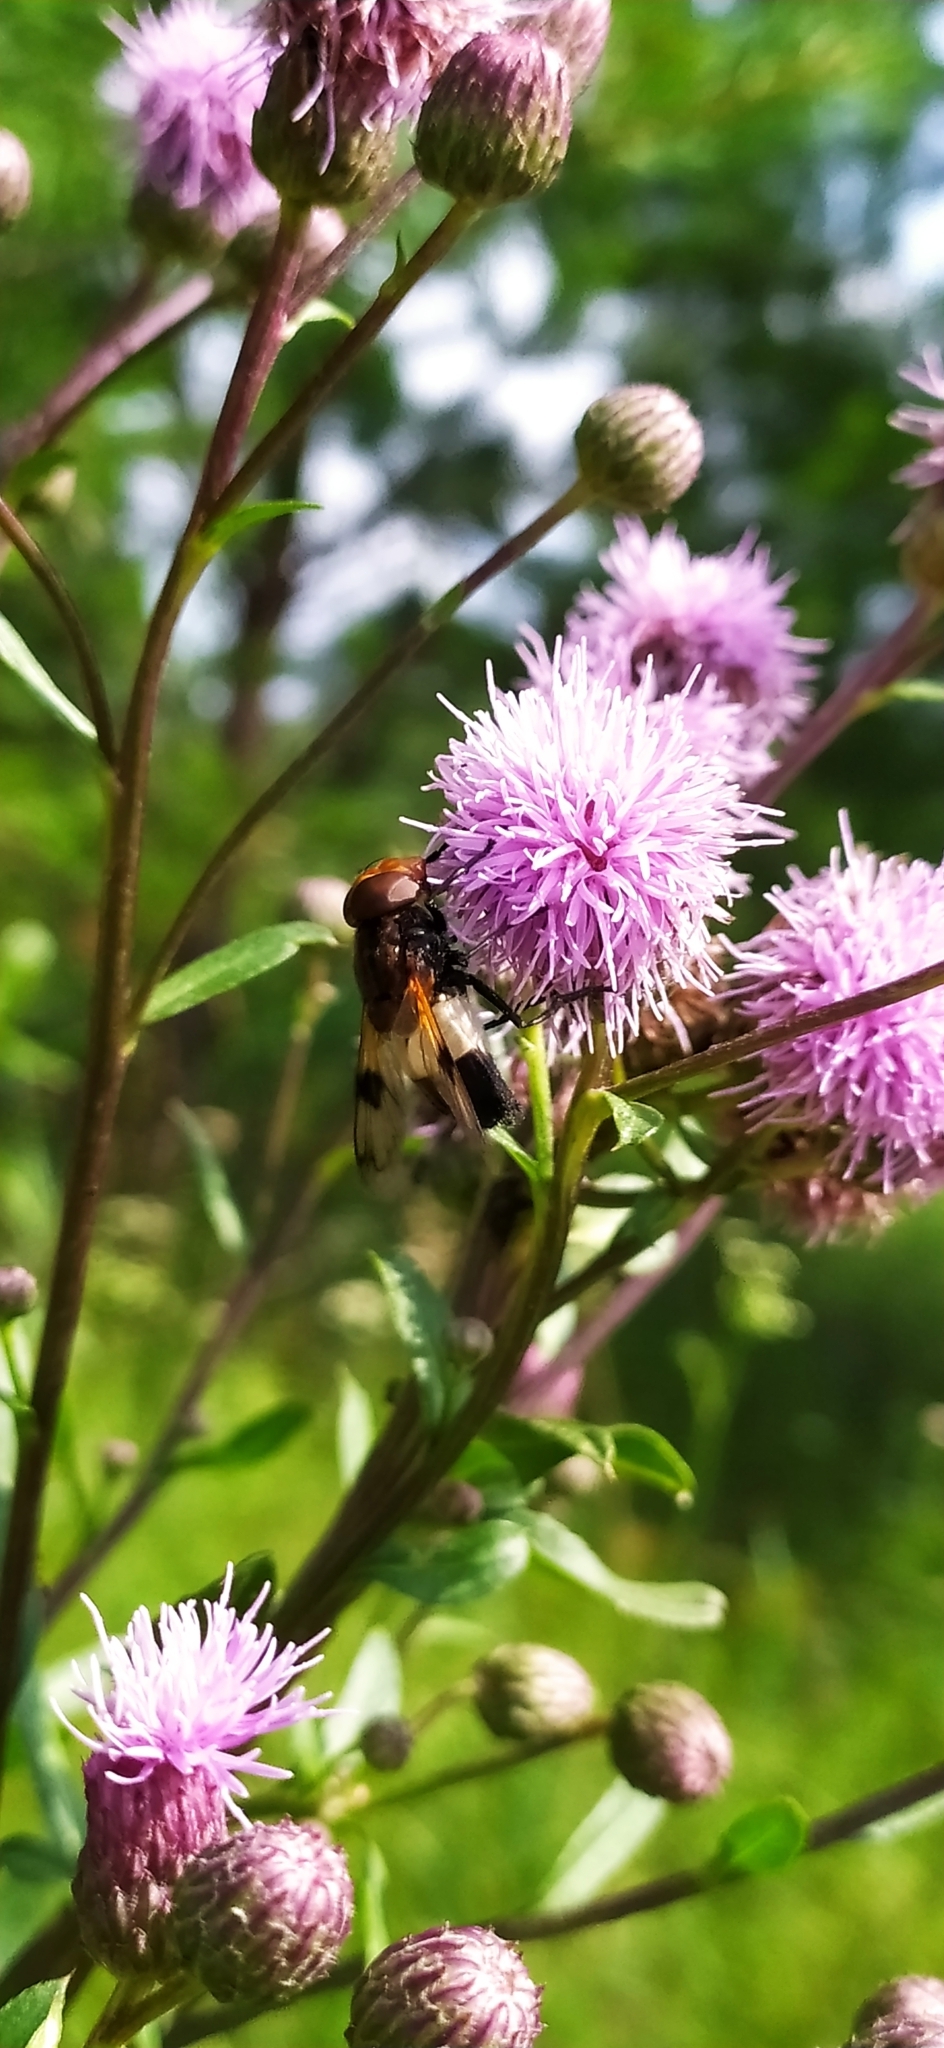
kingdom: Animalia
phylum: Arthropoda
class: Insecta
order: Diptera
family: Syrphidae
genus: Volucella
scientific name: Volucella pellucens
